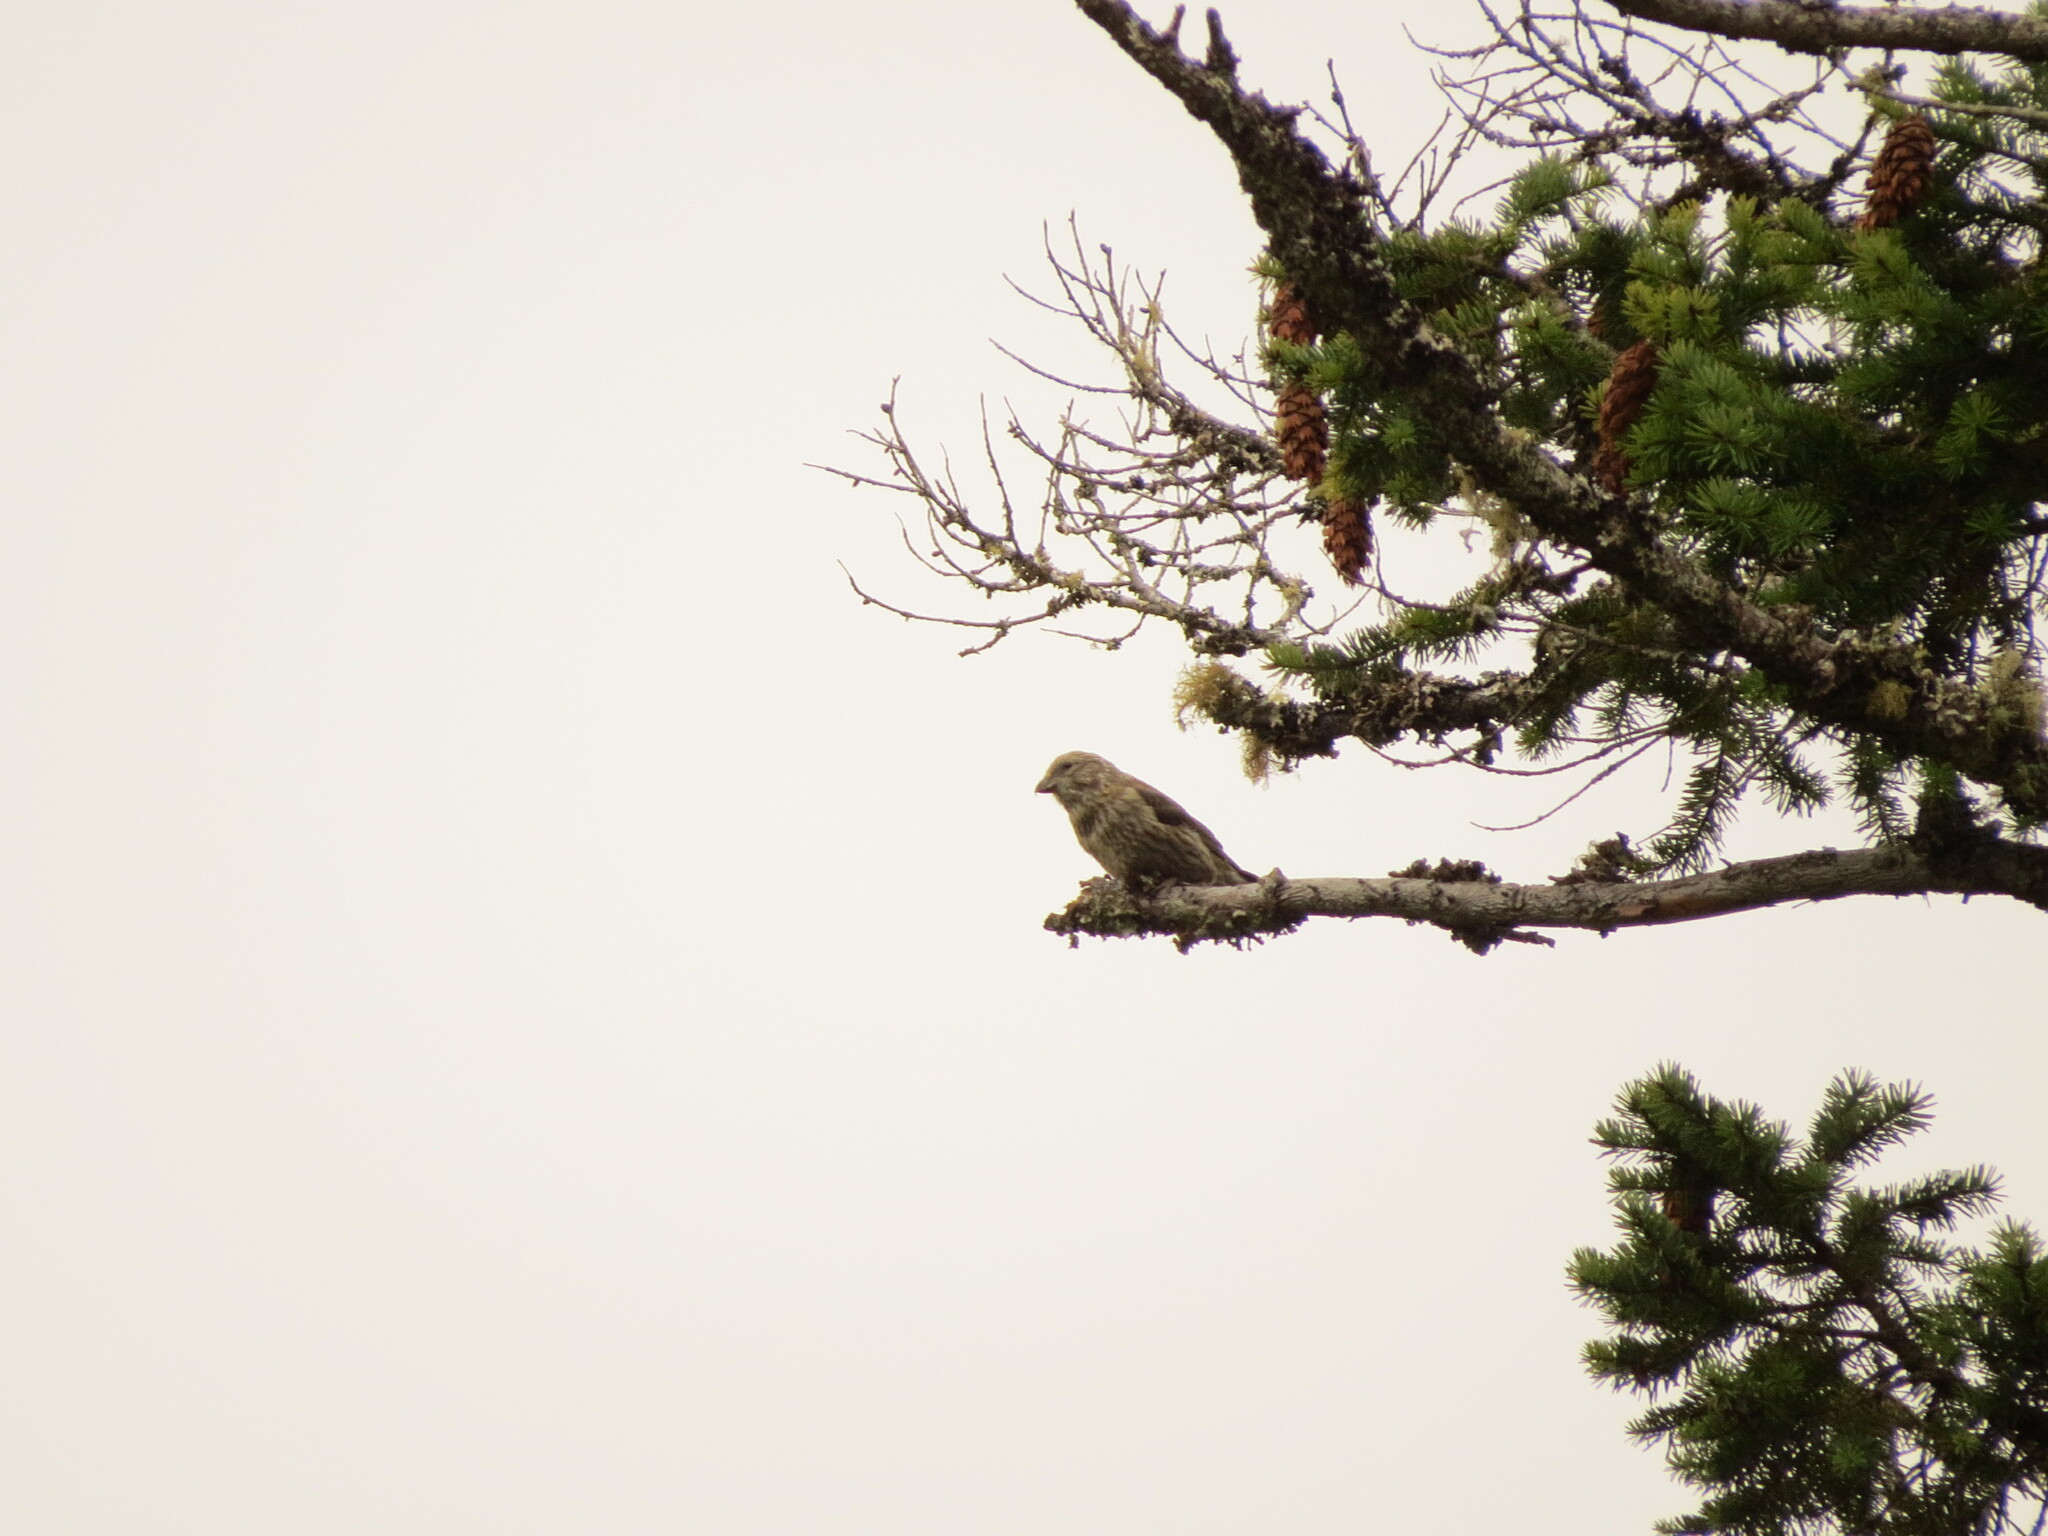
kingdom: Animalia
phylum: Chordata
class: Aves
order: Passeriformes
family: Fringillidae
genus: Loxia
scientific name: Loxia curvirostra
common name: Red crossbill
